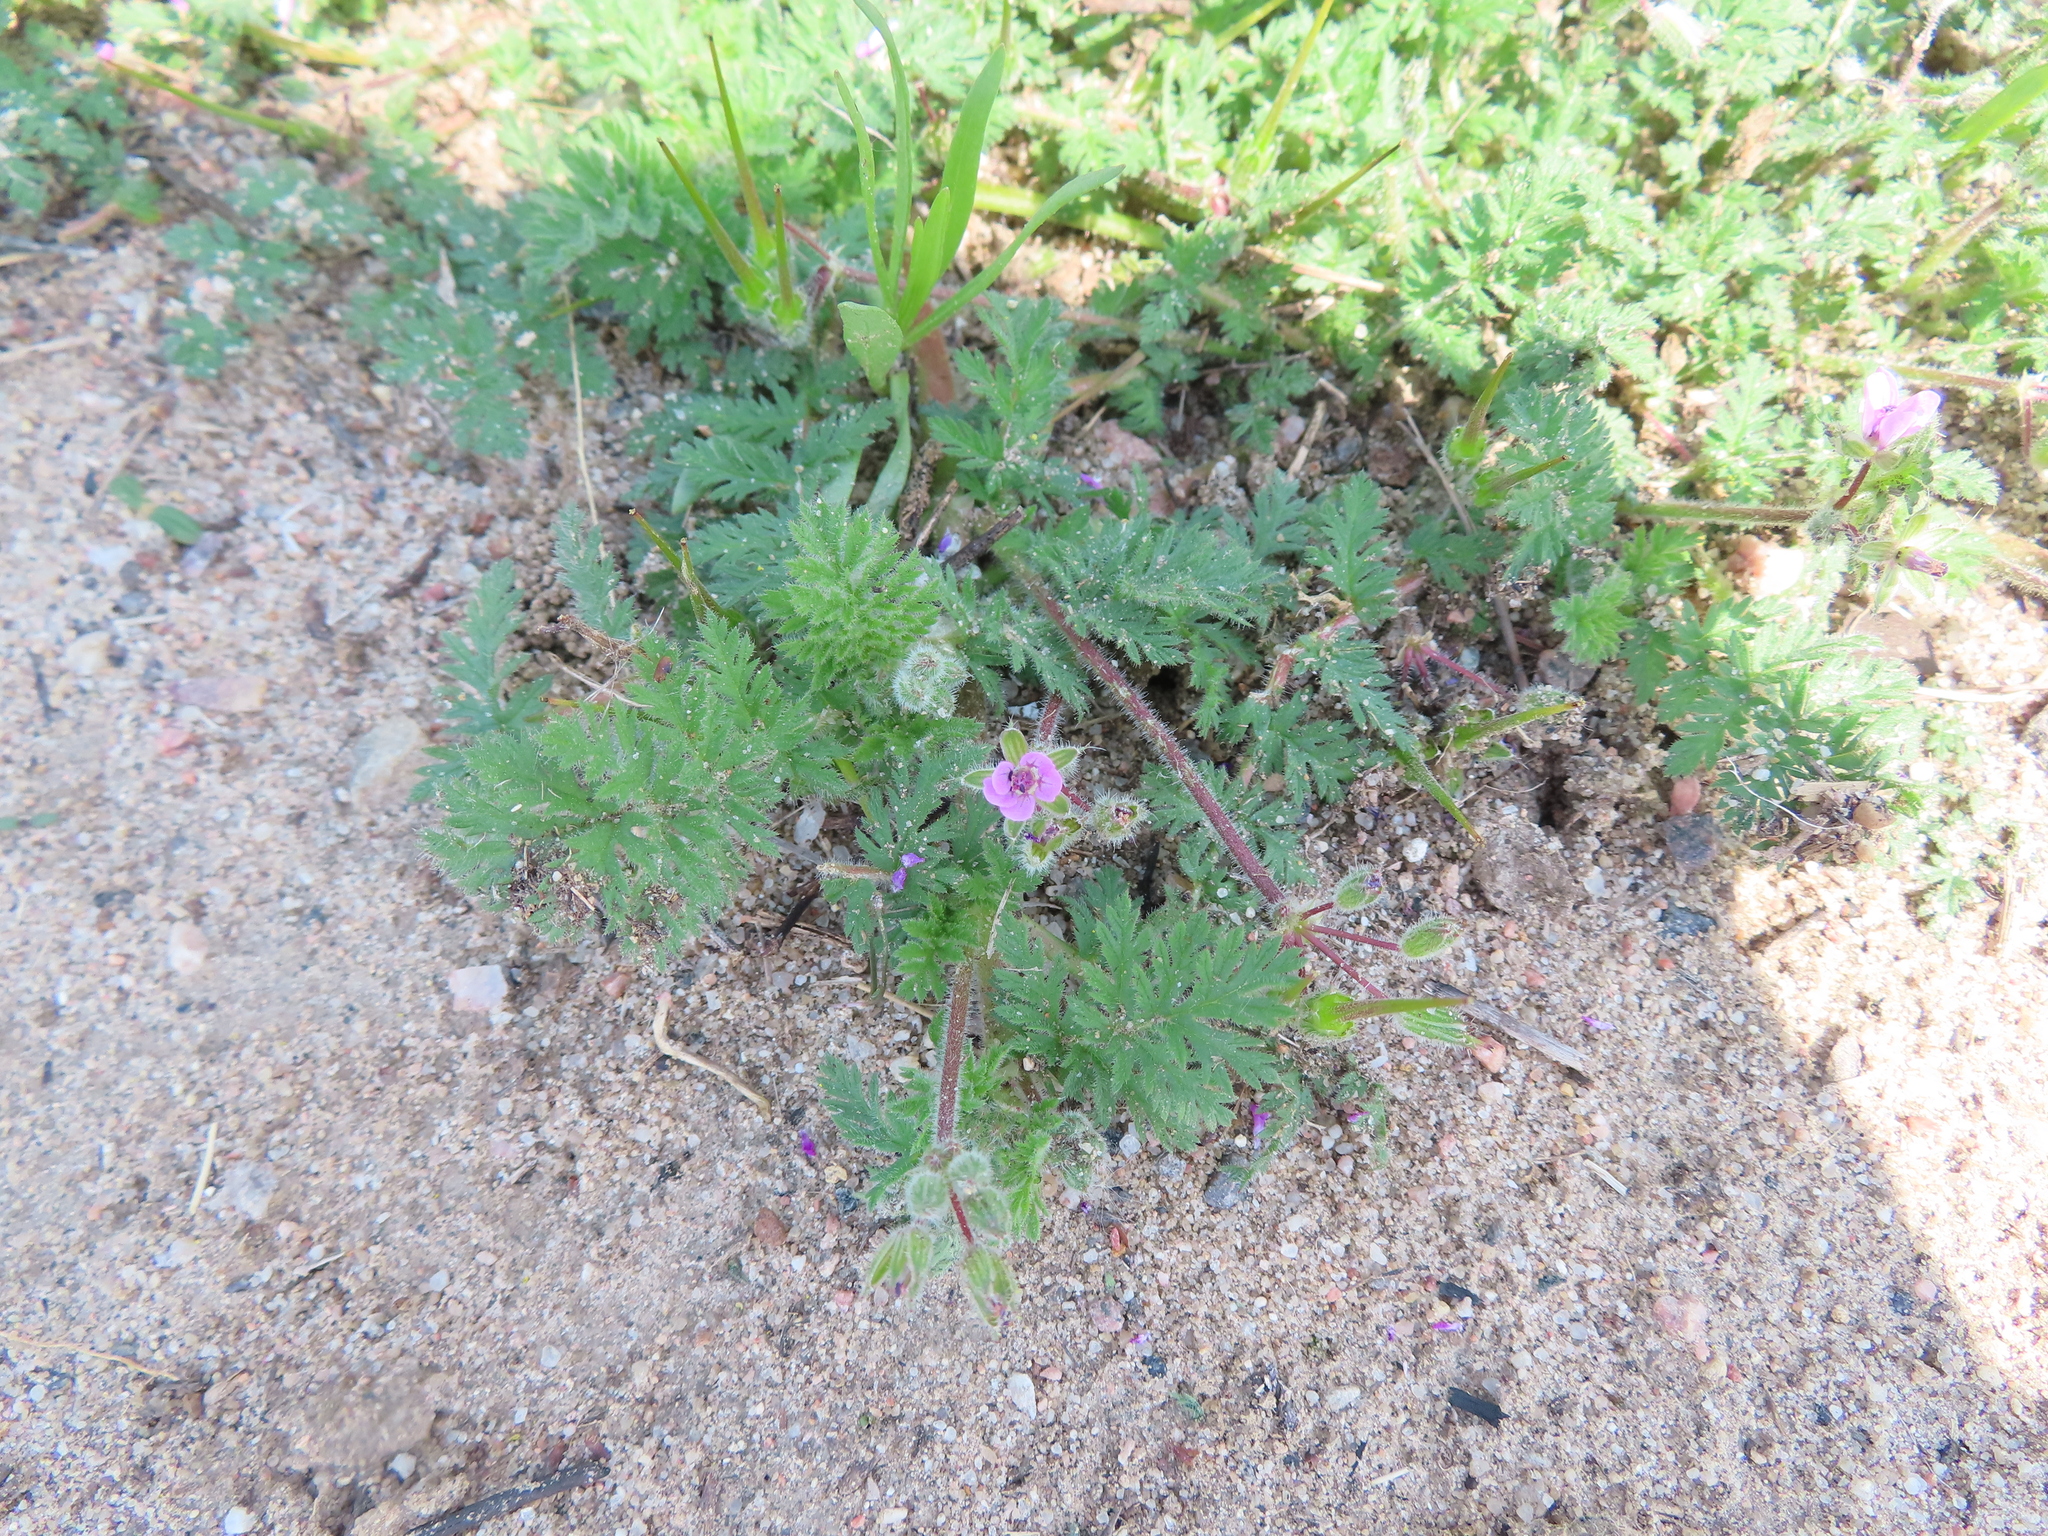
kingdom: Plantae
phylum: Tracheophyta
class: Magnoliopsida
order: Geraniales
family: Geraniaceae
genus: Erodium
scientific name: Erodium cicutarium
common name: Common stork's-bill
